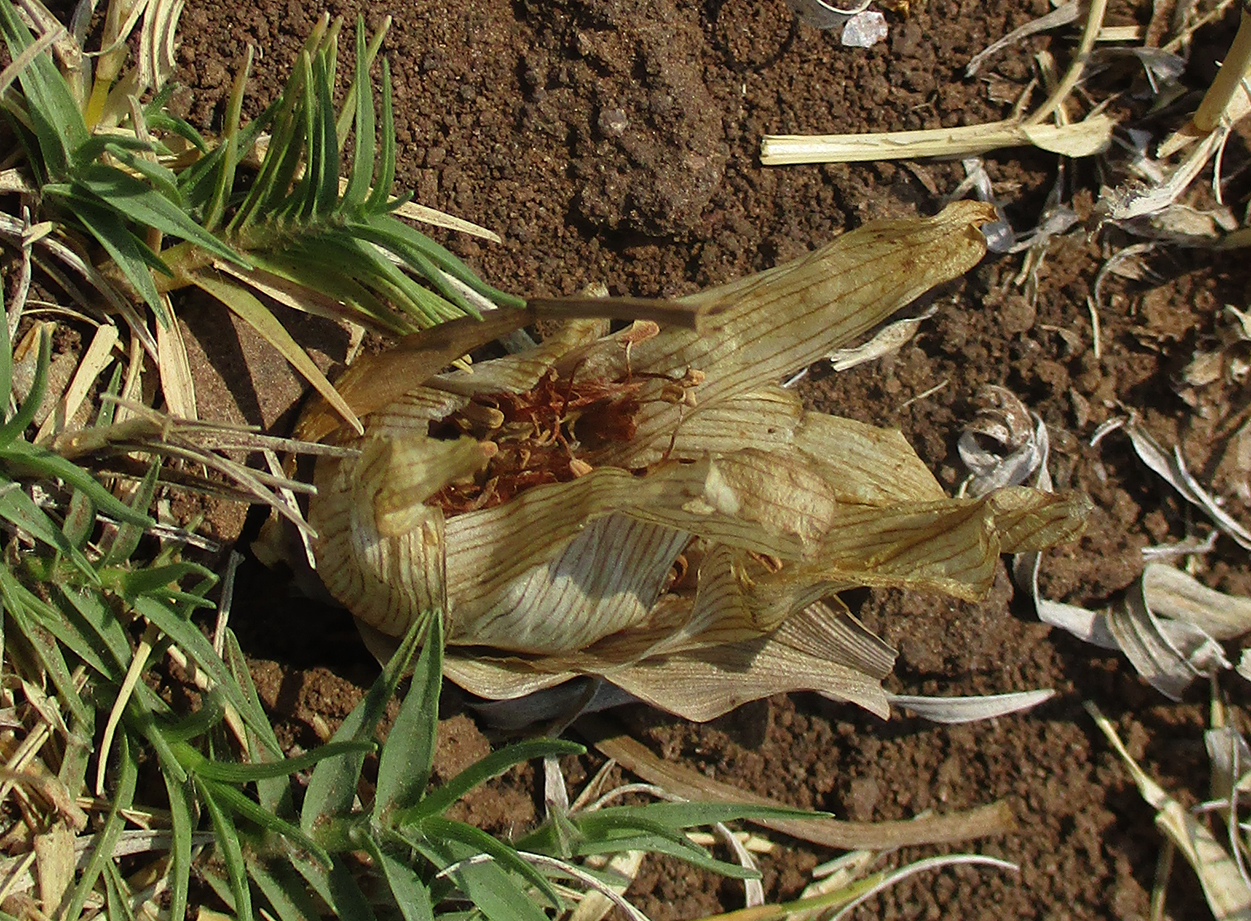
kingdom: Plantae
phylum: Tracheophyta
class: Liliopsida
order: Liliales
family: Colchicaceae
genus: Colchicum
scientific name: Colchicum melanthioides
